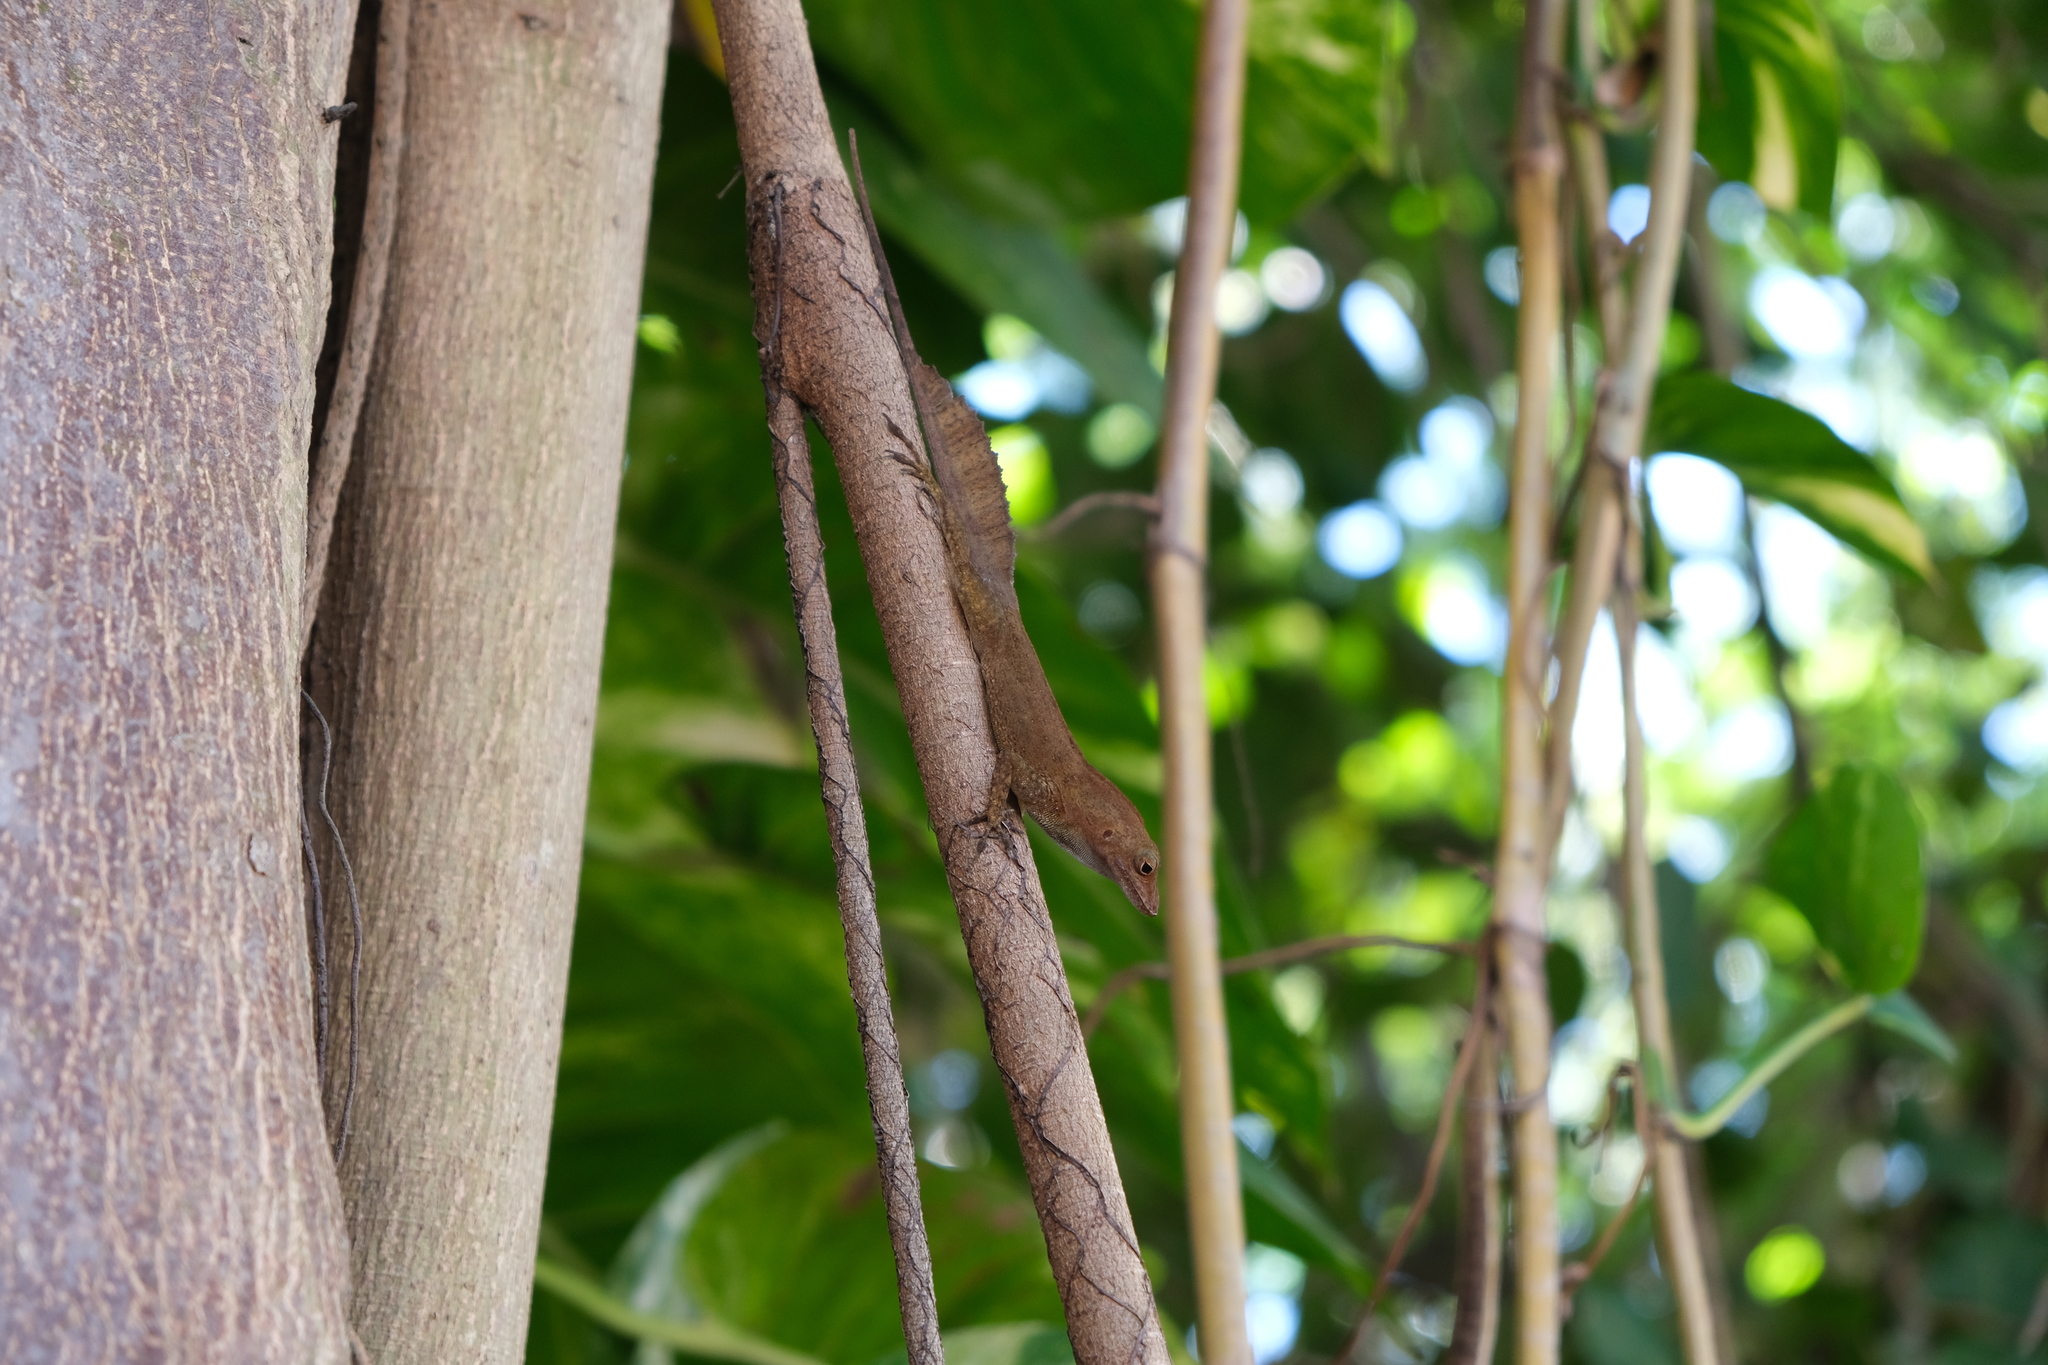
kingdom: Animalia
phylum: Chordata
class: Squamata
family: Dactyloidae
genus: Anolis
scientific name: Anolis cristatellus
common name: Crested anole
